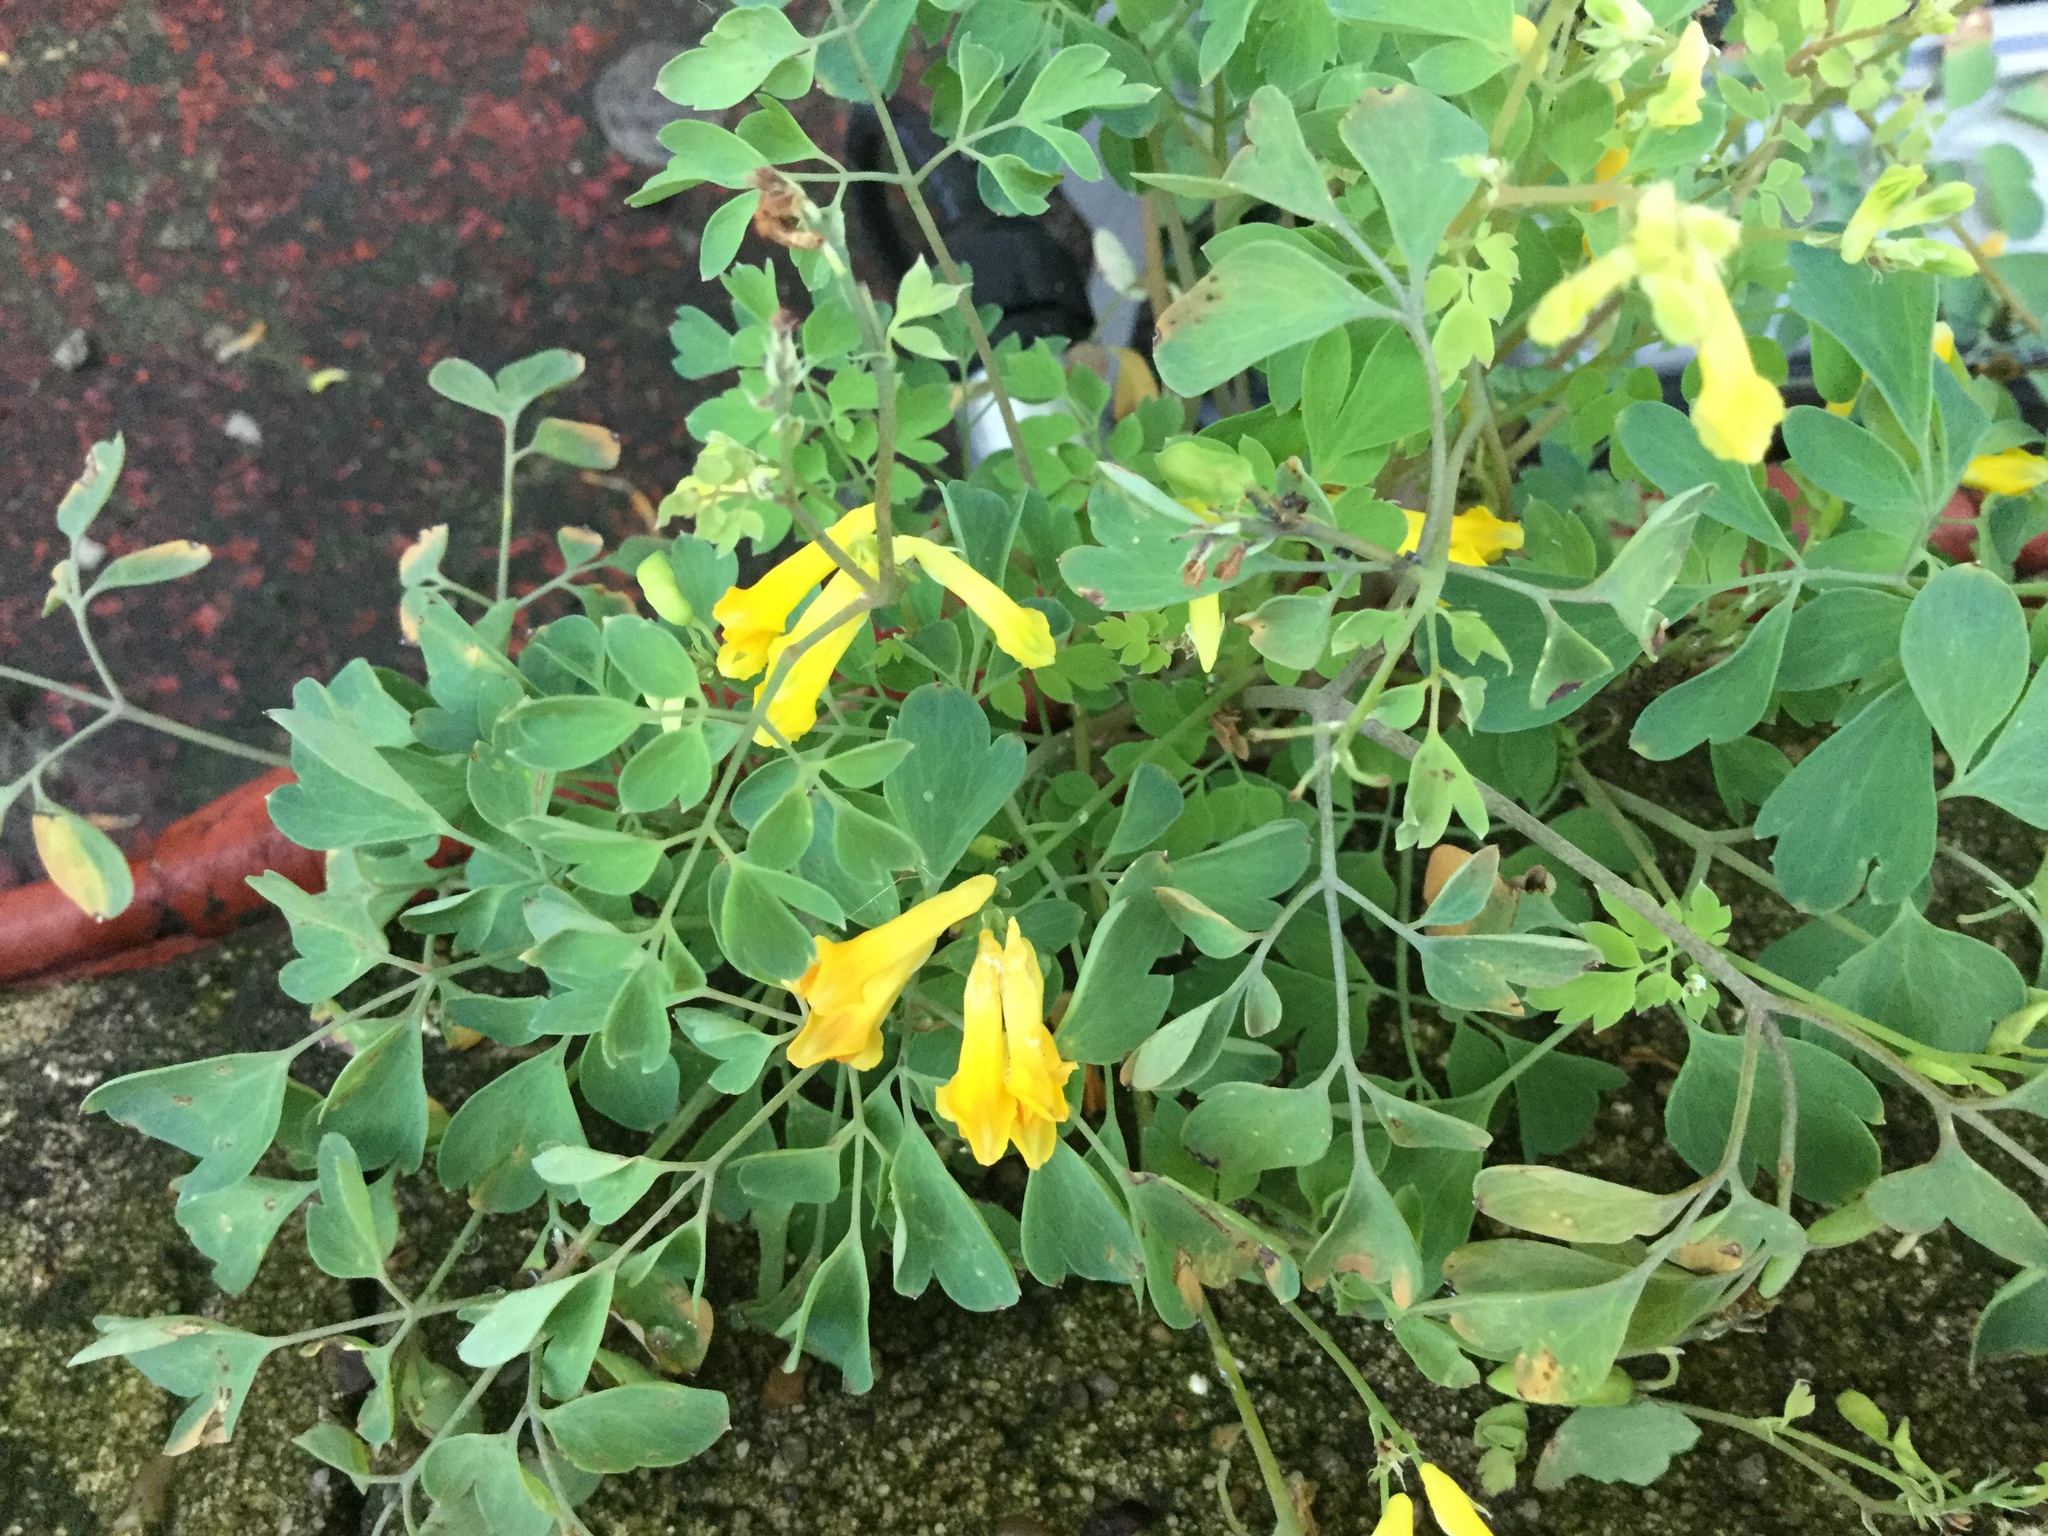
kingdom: Plantae
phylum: Tracheophyta
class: Magnoliopsida
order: Ranunculales
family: Papaveraceae
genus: Pseudofumaria
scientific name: Pseudofumaria lutea
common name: Yellow corydalis
